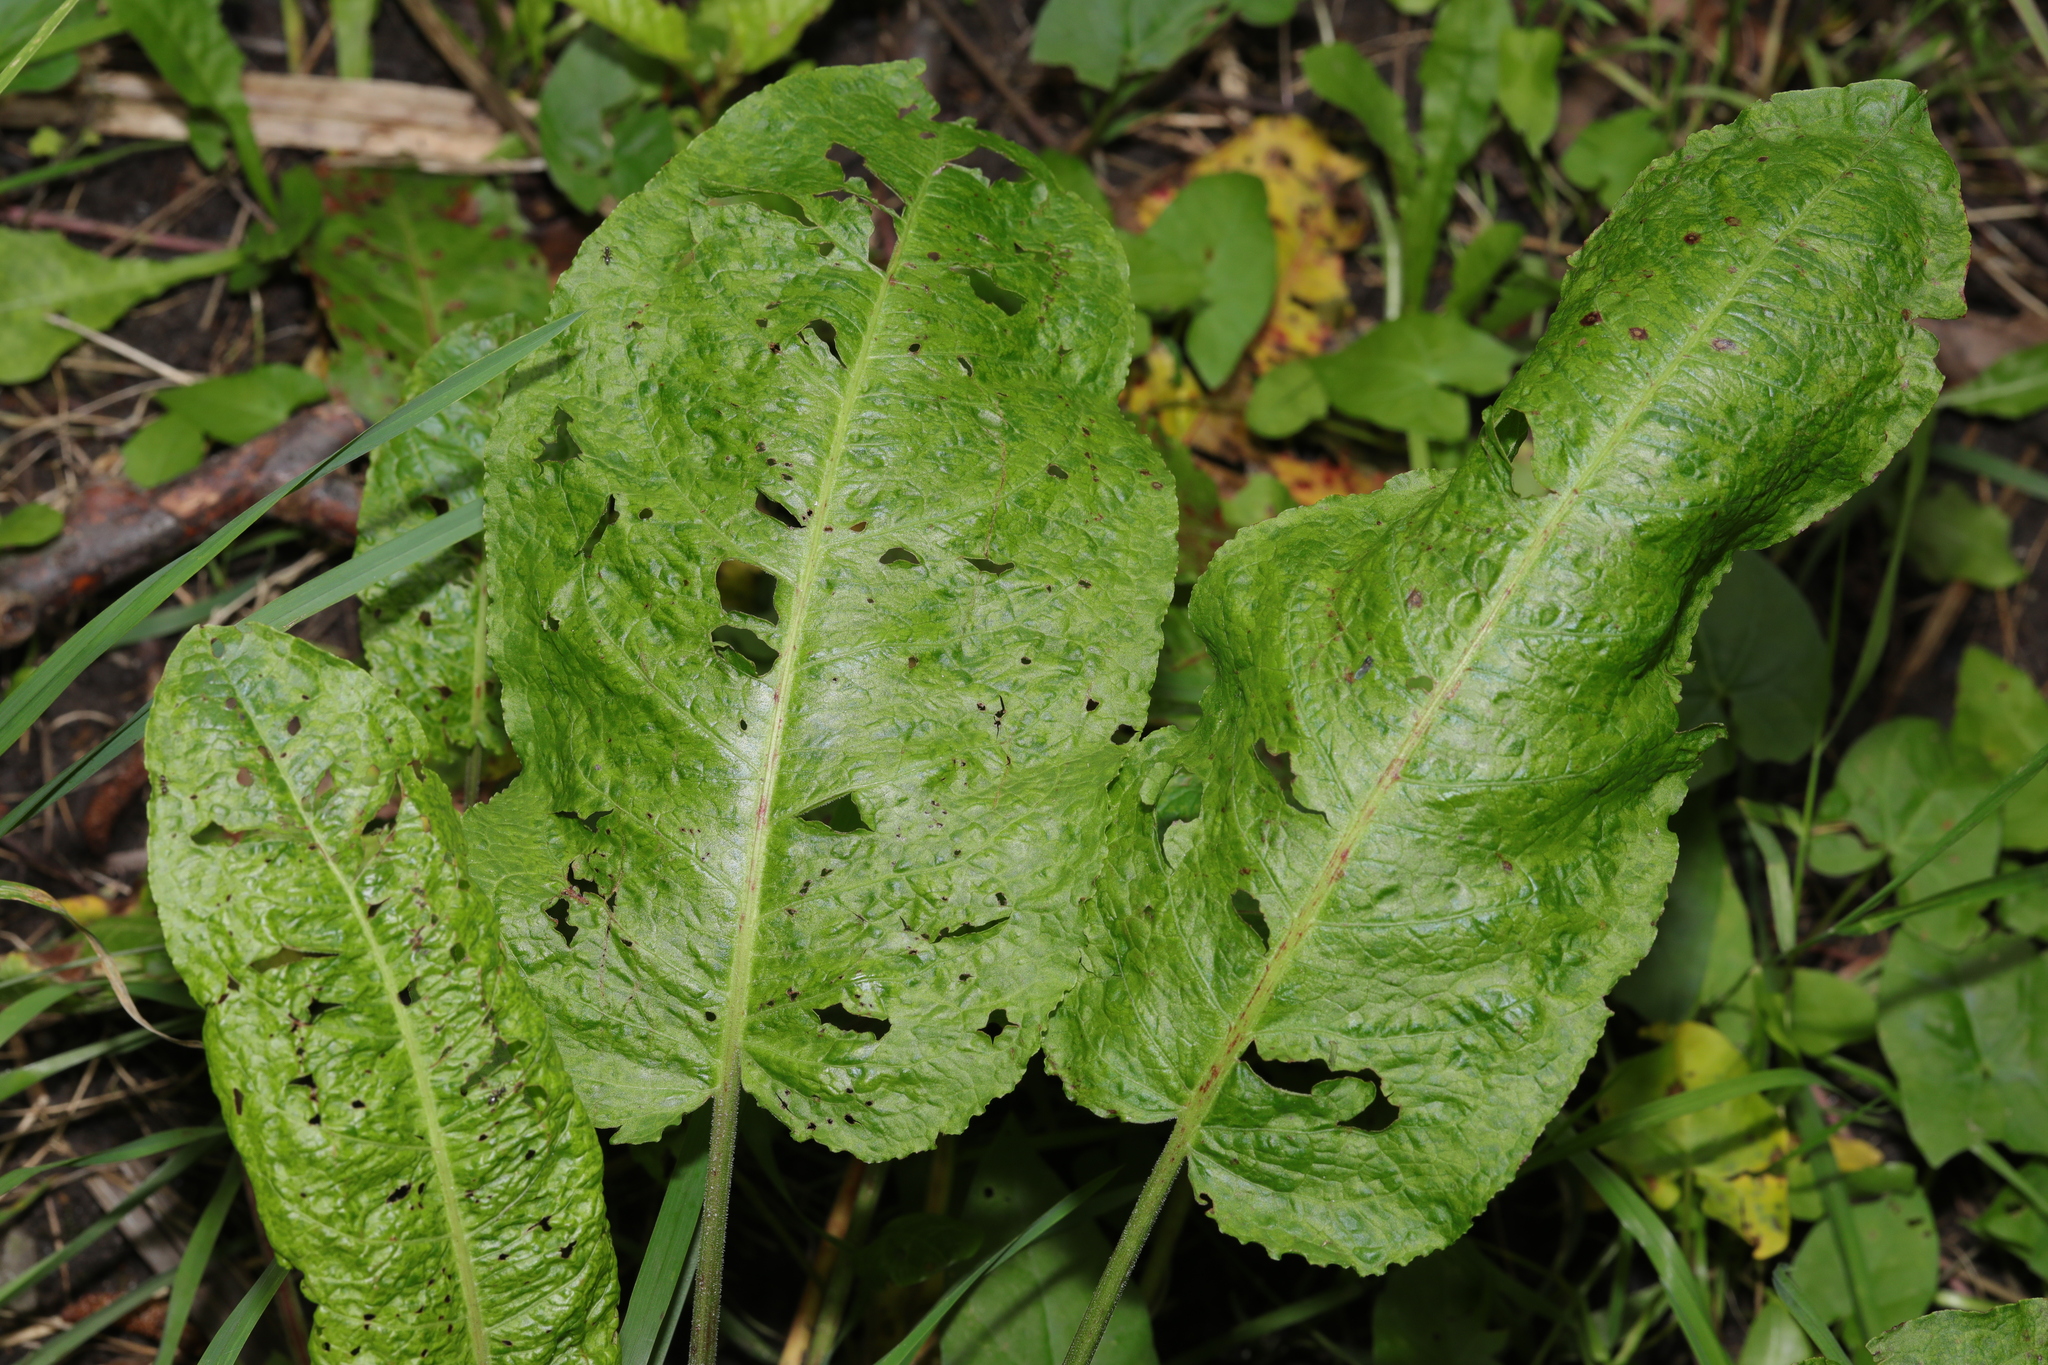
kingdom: Plantae
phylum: Tracheophyta
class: Magnoliopsida
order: Caryophyllales
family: Polygonaceae
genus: Rumex
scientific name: Rumex obtusifolius
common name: Bitter dock
